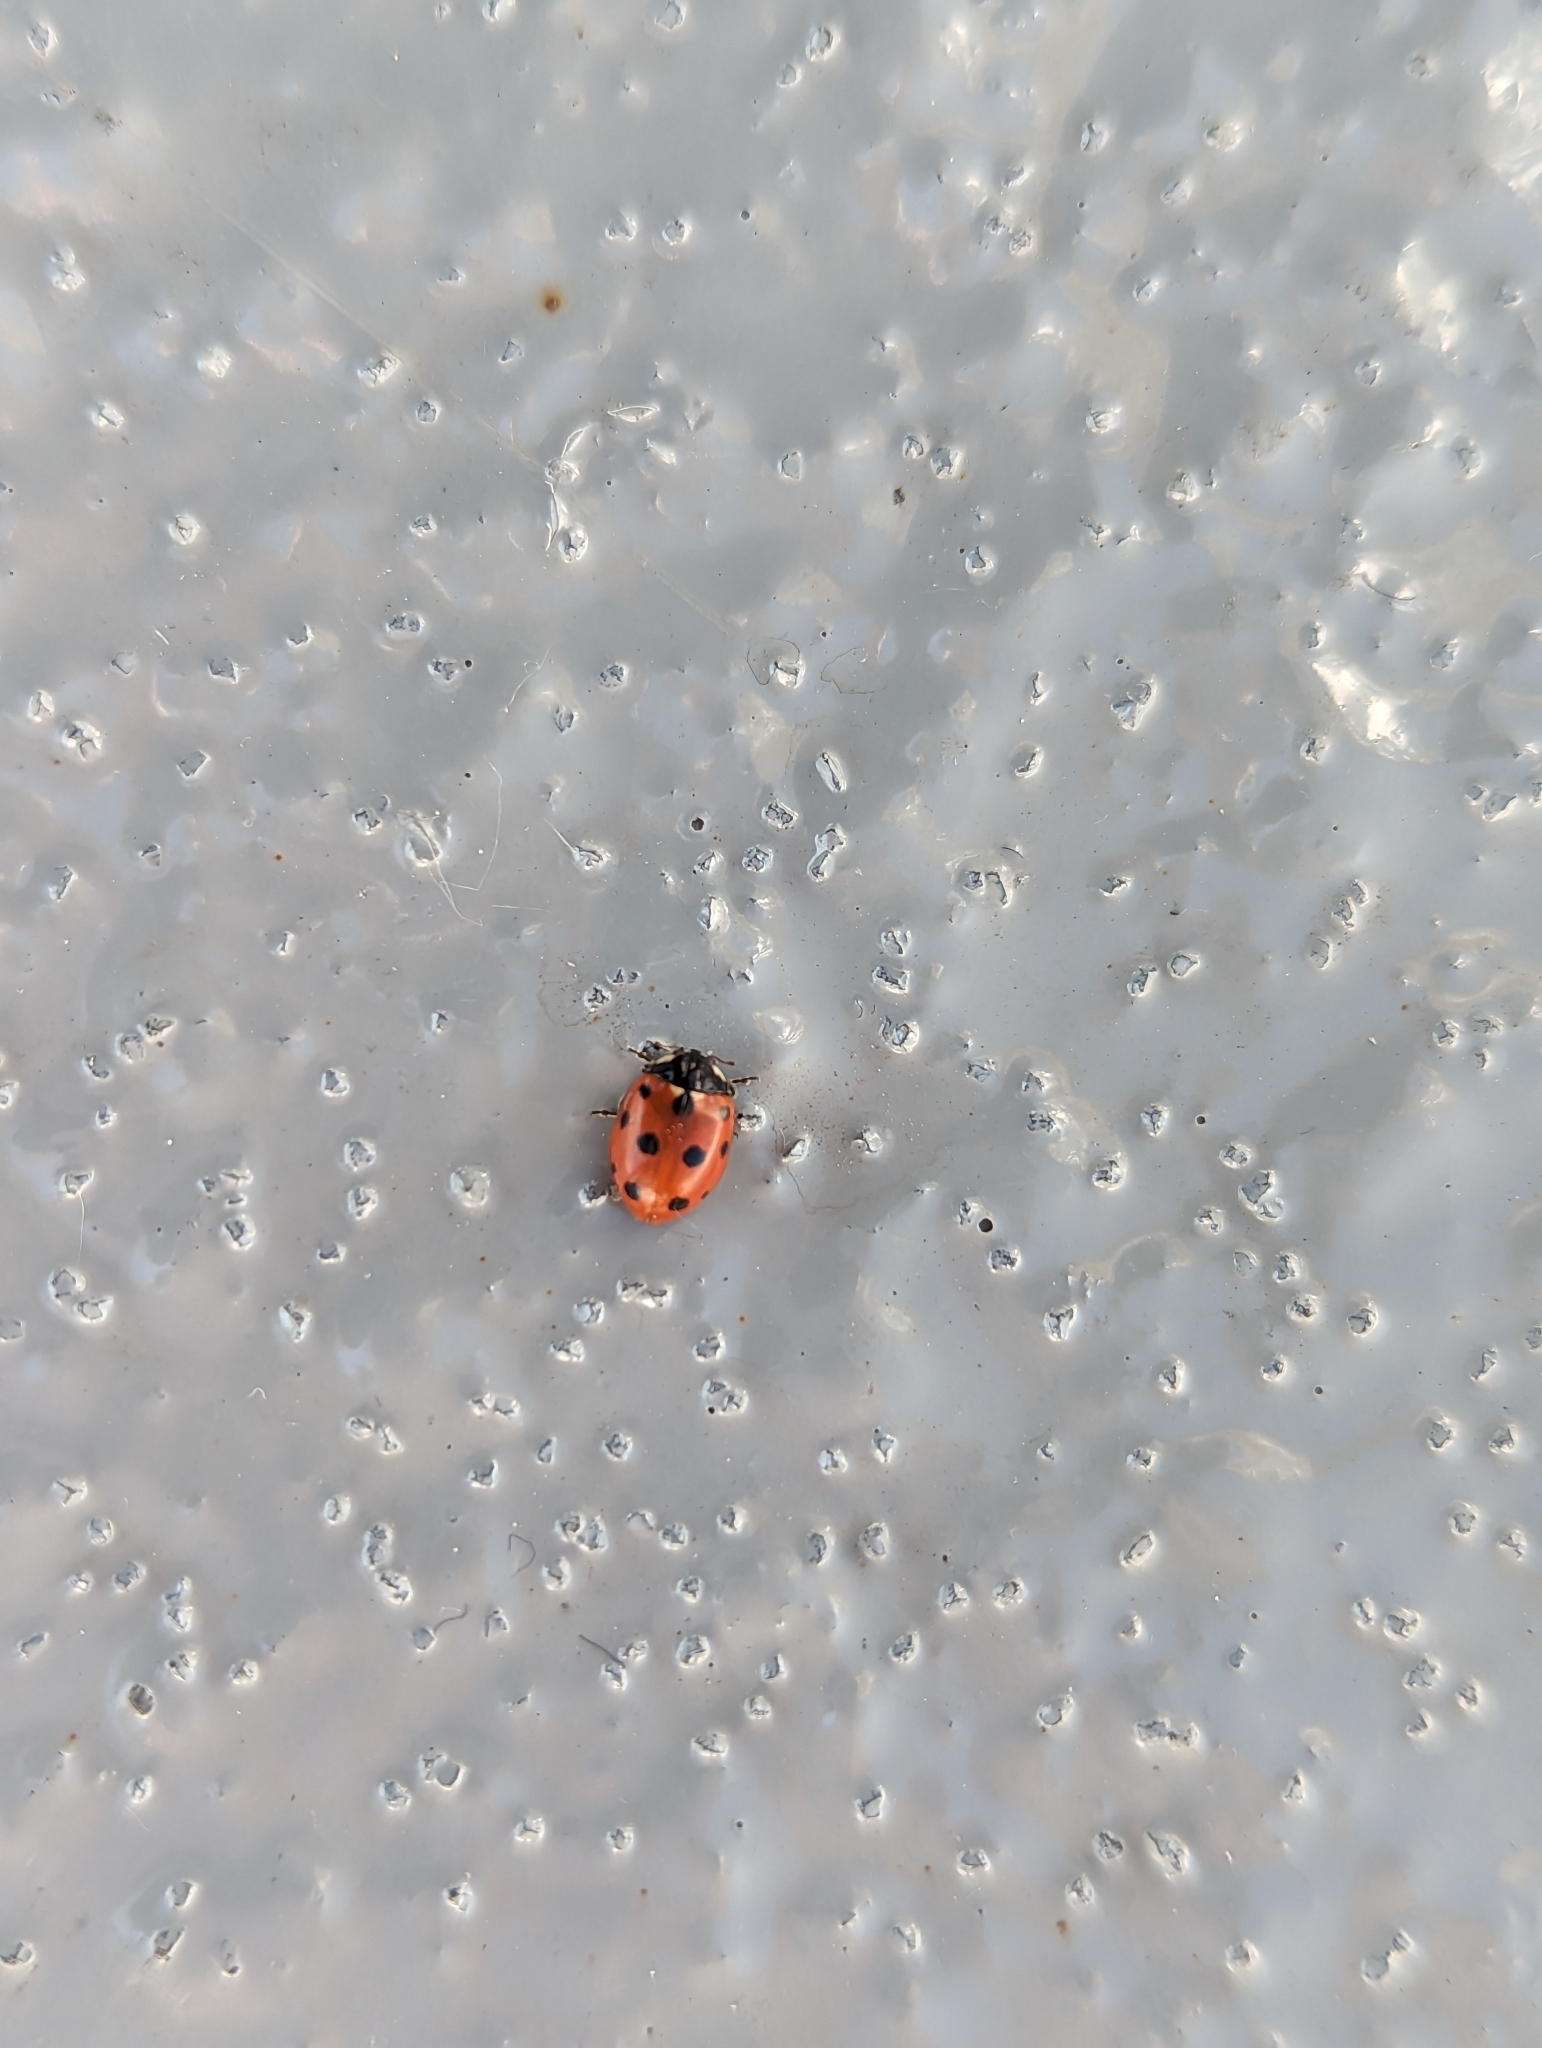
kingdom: Animalia
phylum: Arthropoda
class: Insecta
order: Coleoptera
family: Coccinellidae
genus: Coccinella
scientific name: Coccinella undecimpunctata
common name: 11-spot ladybird
